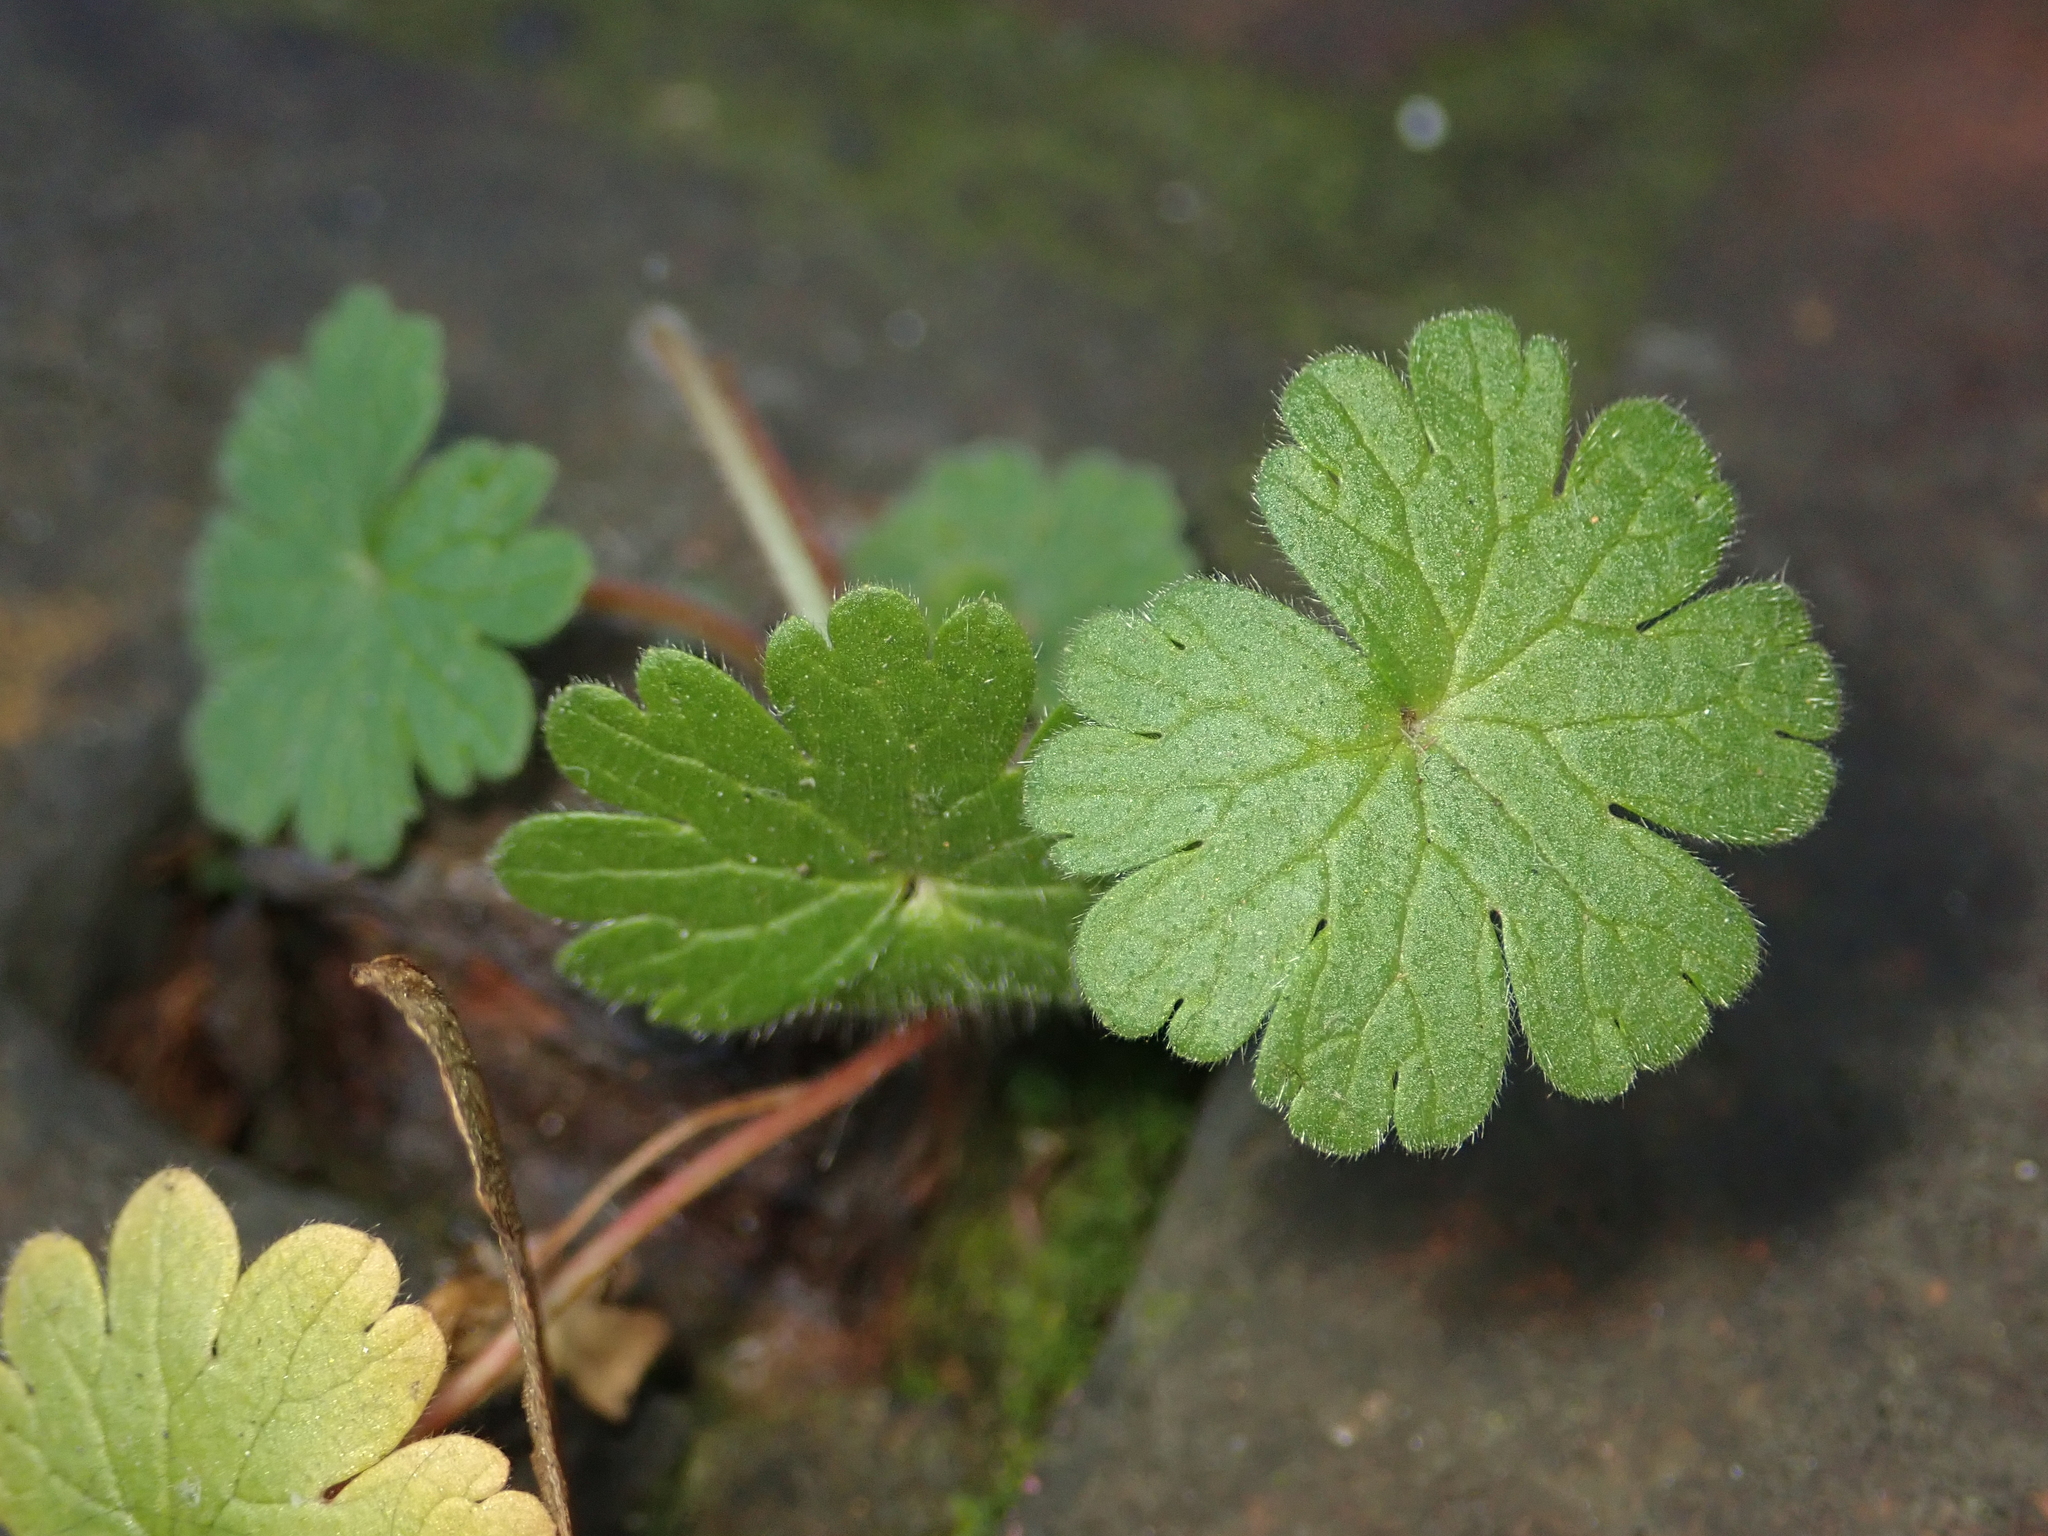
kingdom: Plantae
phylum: Tracheophyta
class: Magnoliopsida
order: Geraniales
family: Geraniaceae
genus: Geranium
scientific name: Geranium molle
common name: Dove's-foot crane's-bill
